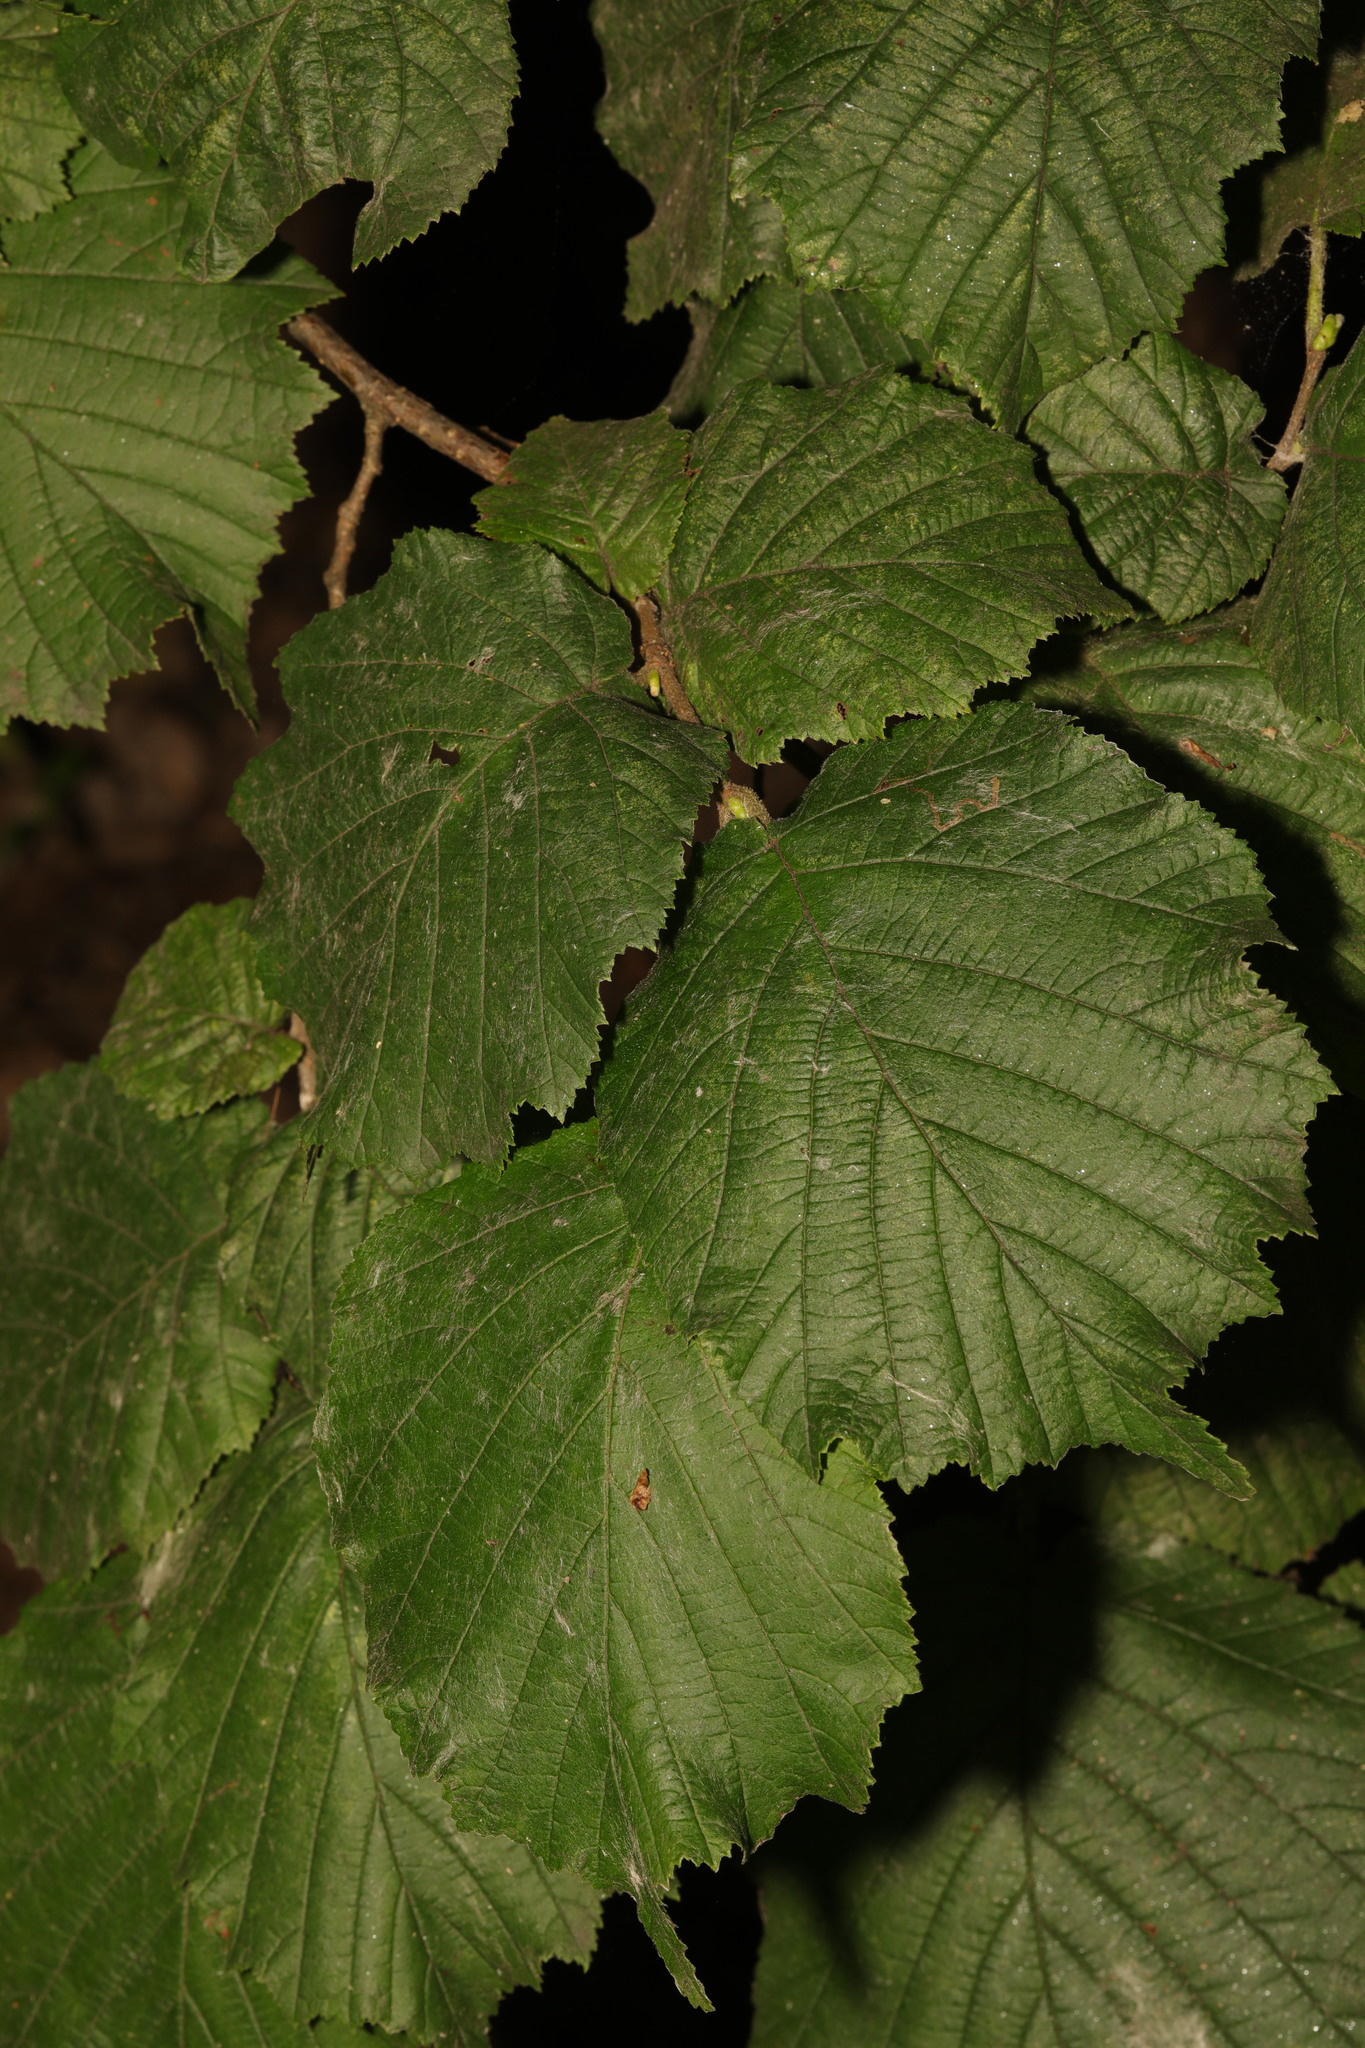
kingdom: Plantae
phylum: Tracheophyta
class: Magnoliopsida
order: Fagales
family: Betulaceae
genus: Corylus
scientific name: Corylus avellana
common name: European hazel
